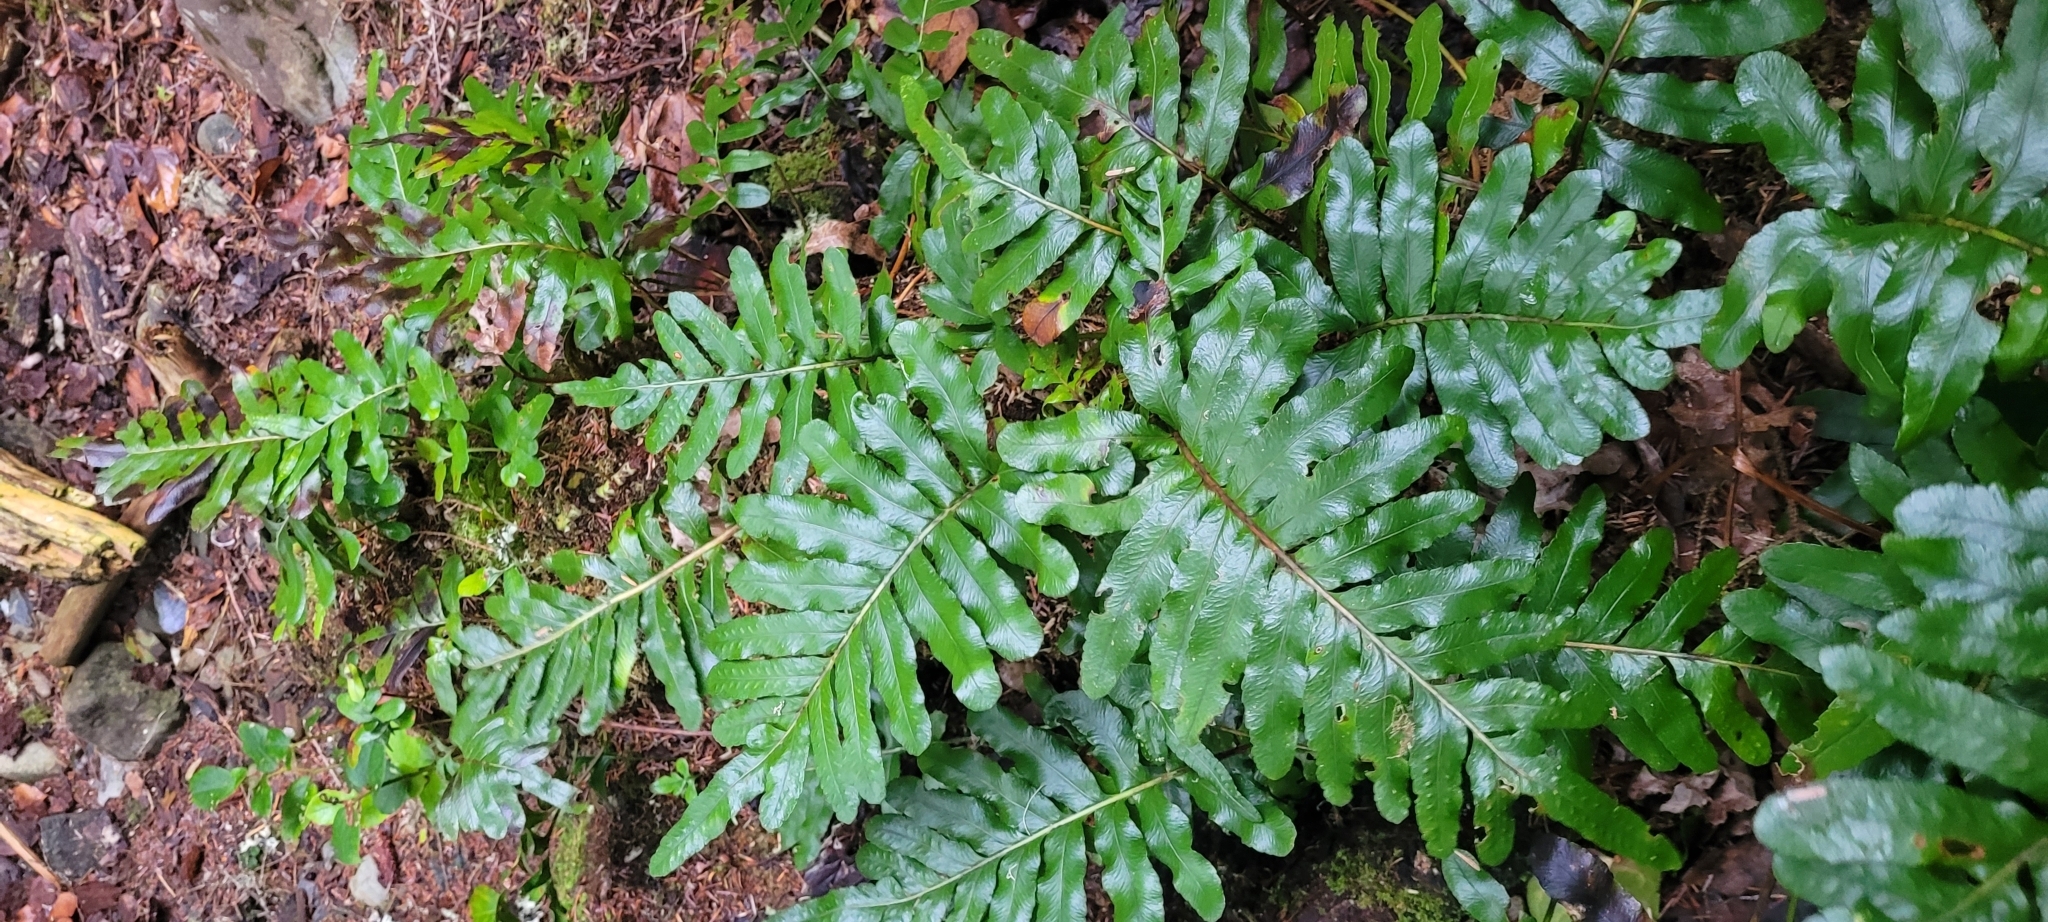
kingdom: Plantae
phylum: Tracheophyta
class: Polypodiopsida
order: Polypodiales
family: Polypodiaceae
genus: Polypodium
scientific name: Polypodium scouleri
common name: Scouler's polypody
